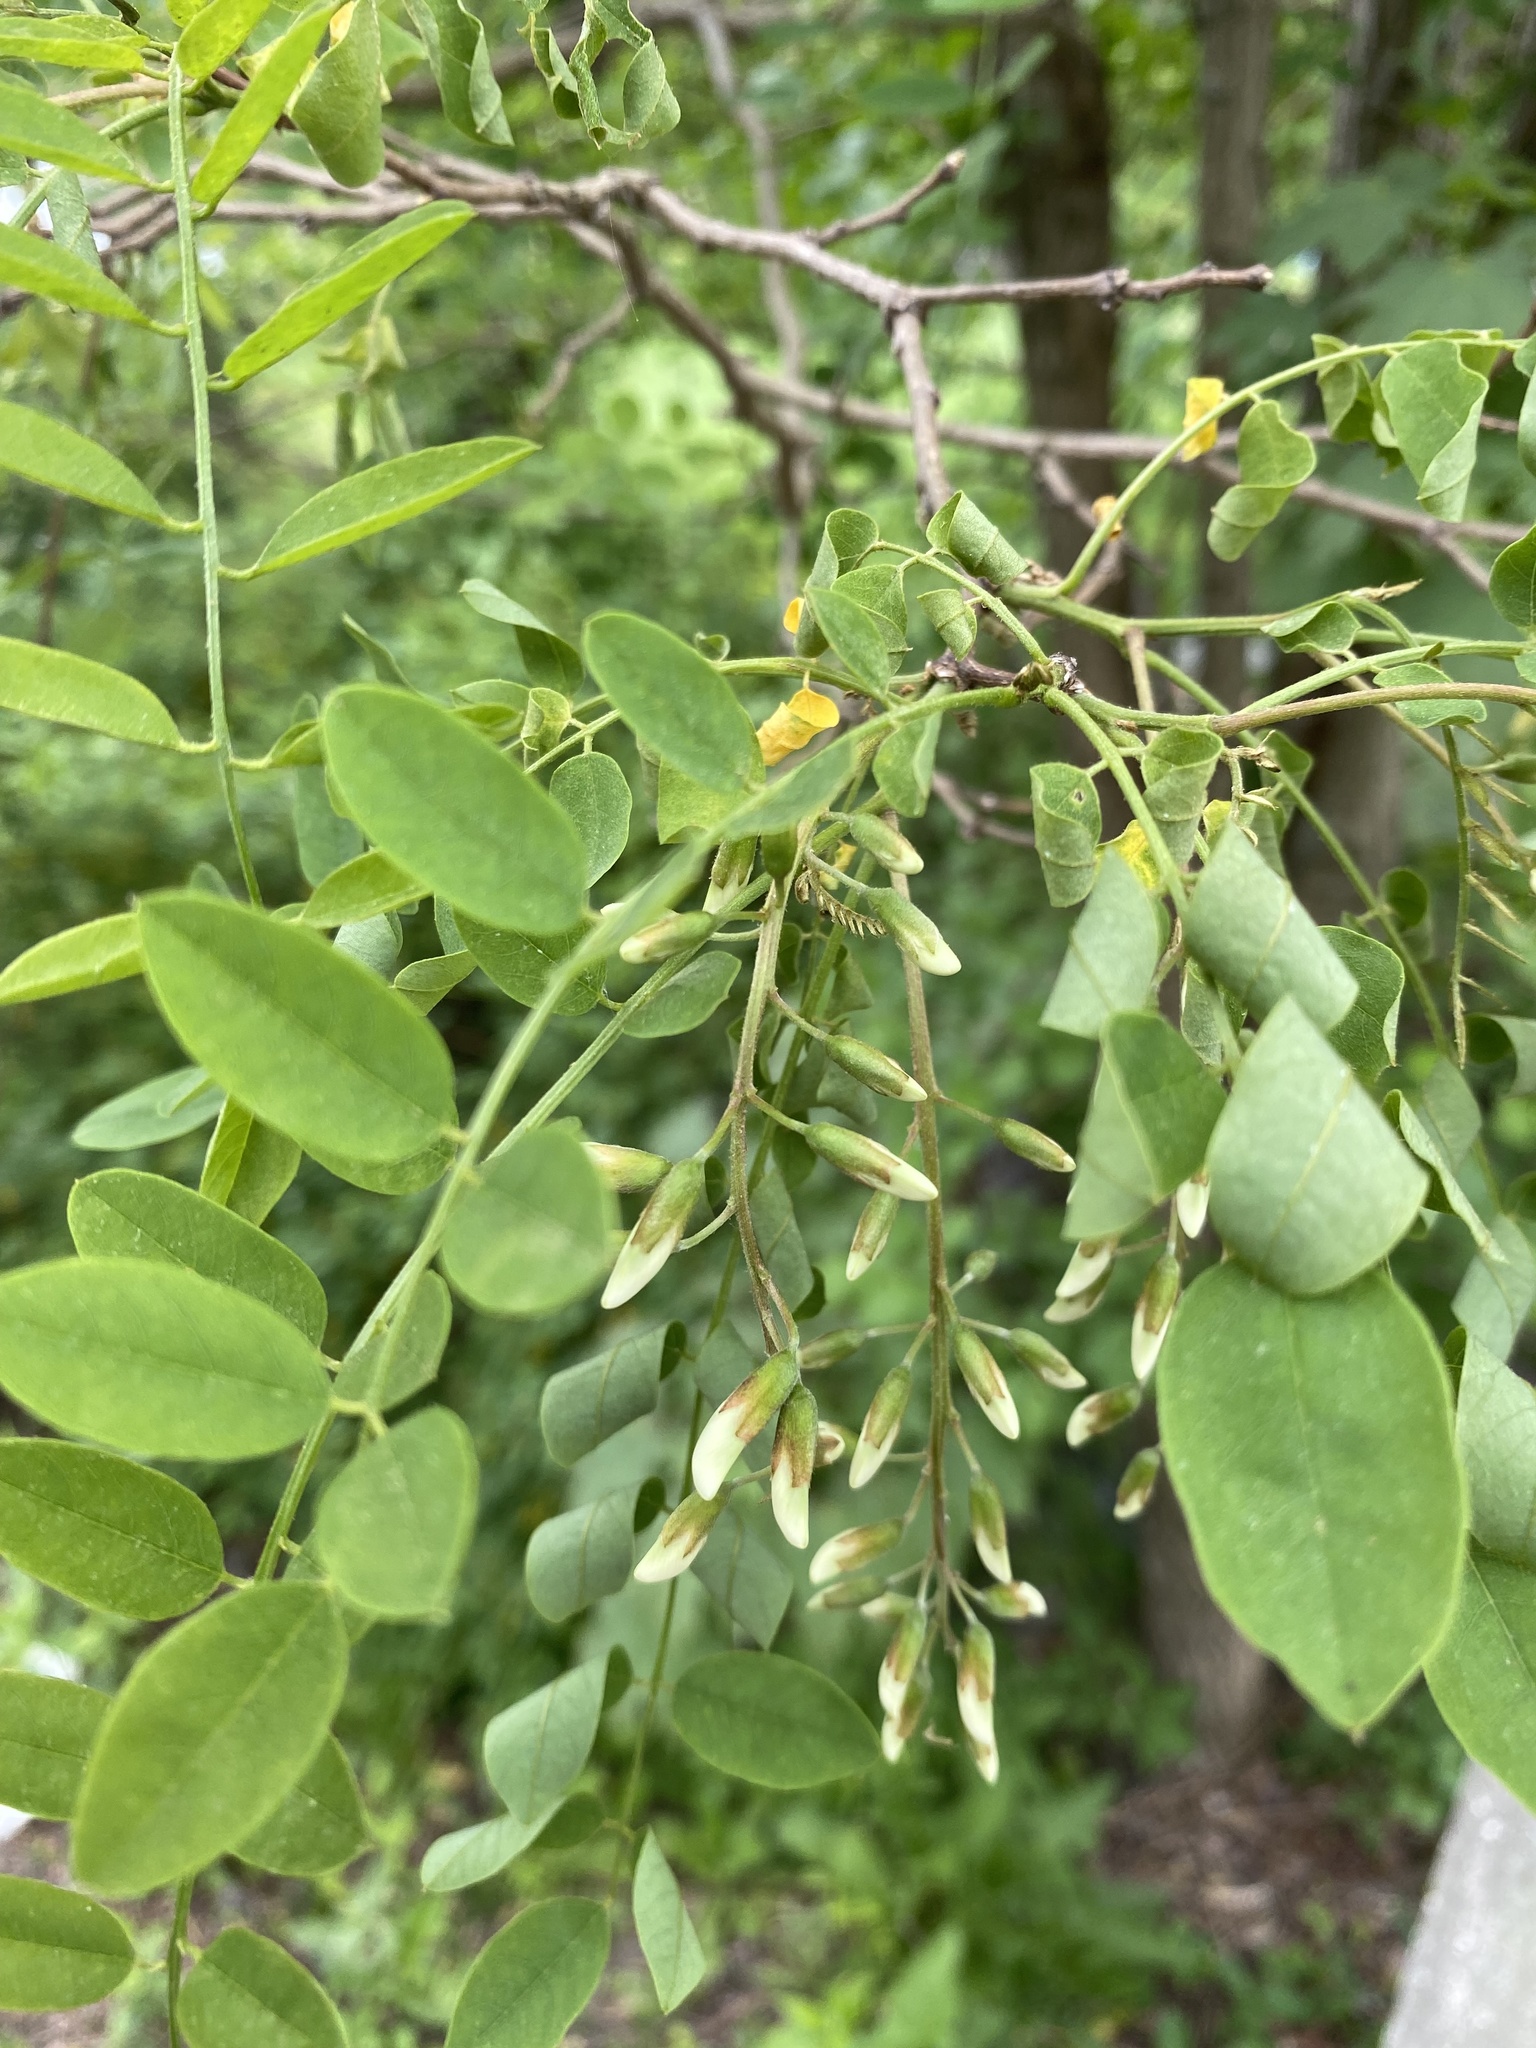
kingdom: Plantae
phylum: Tracheophyta
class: Magnoliopsida
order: Fabales
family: Fabaceae
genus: Robinia
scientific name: Robinia pseudoacacia
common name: Black locust
